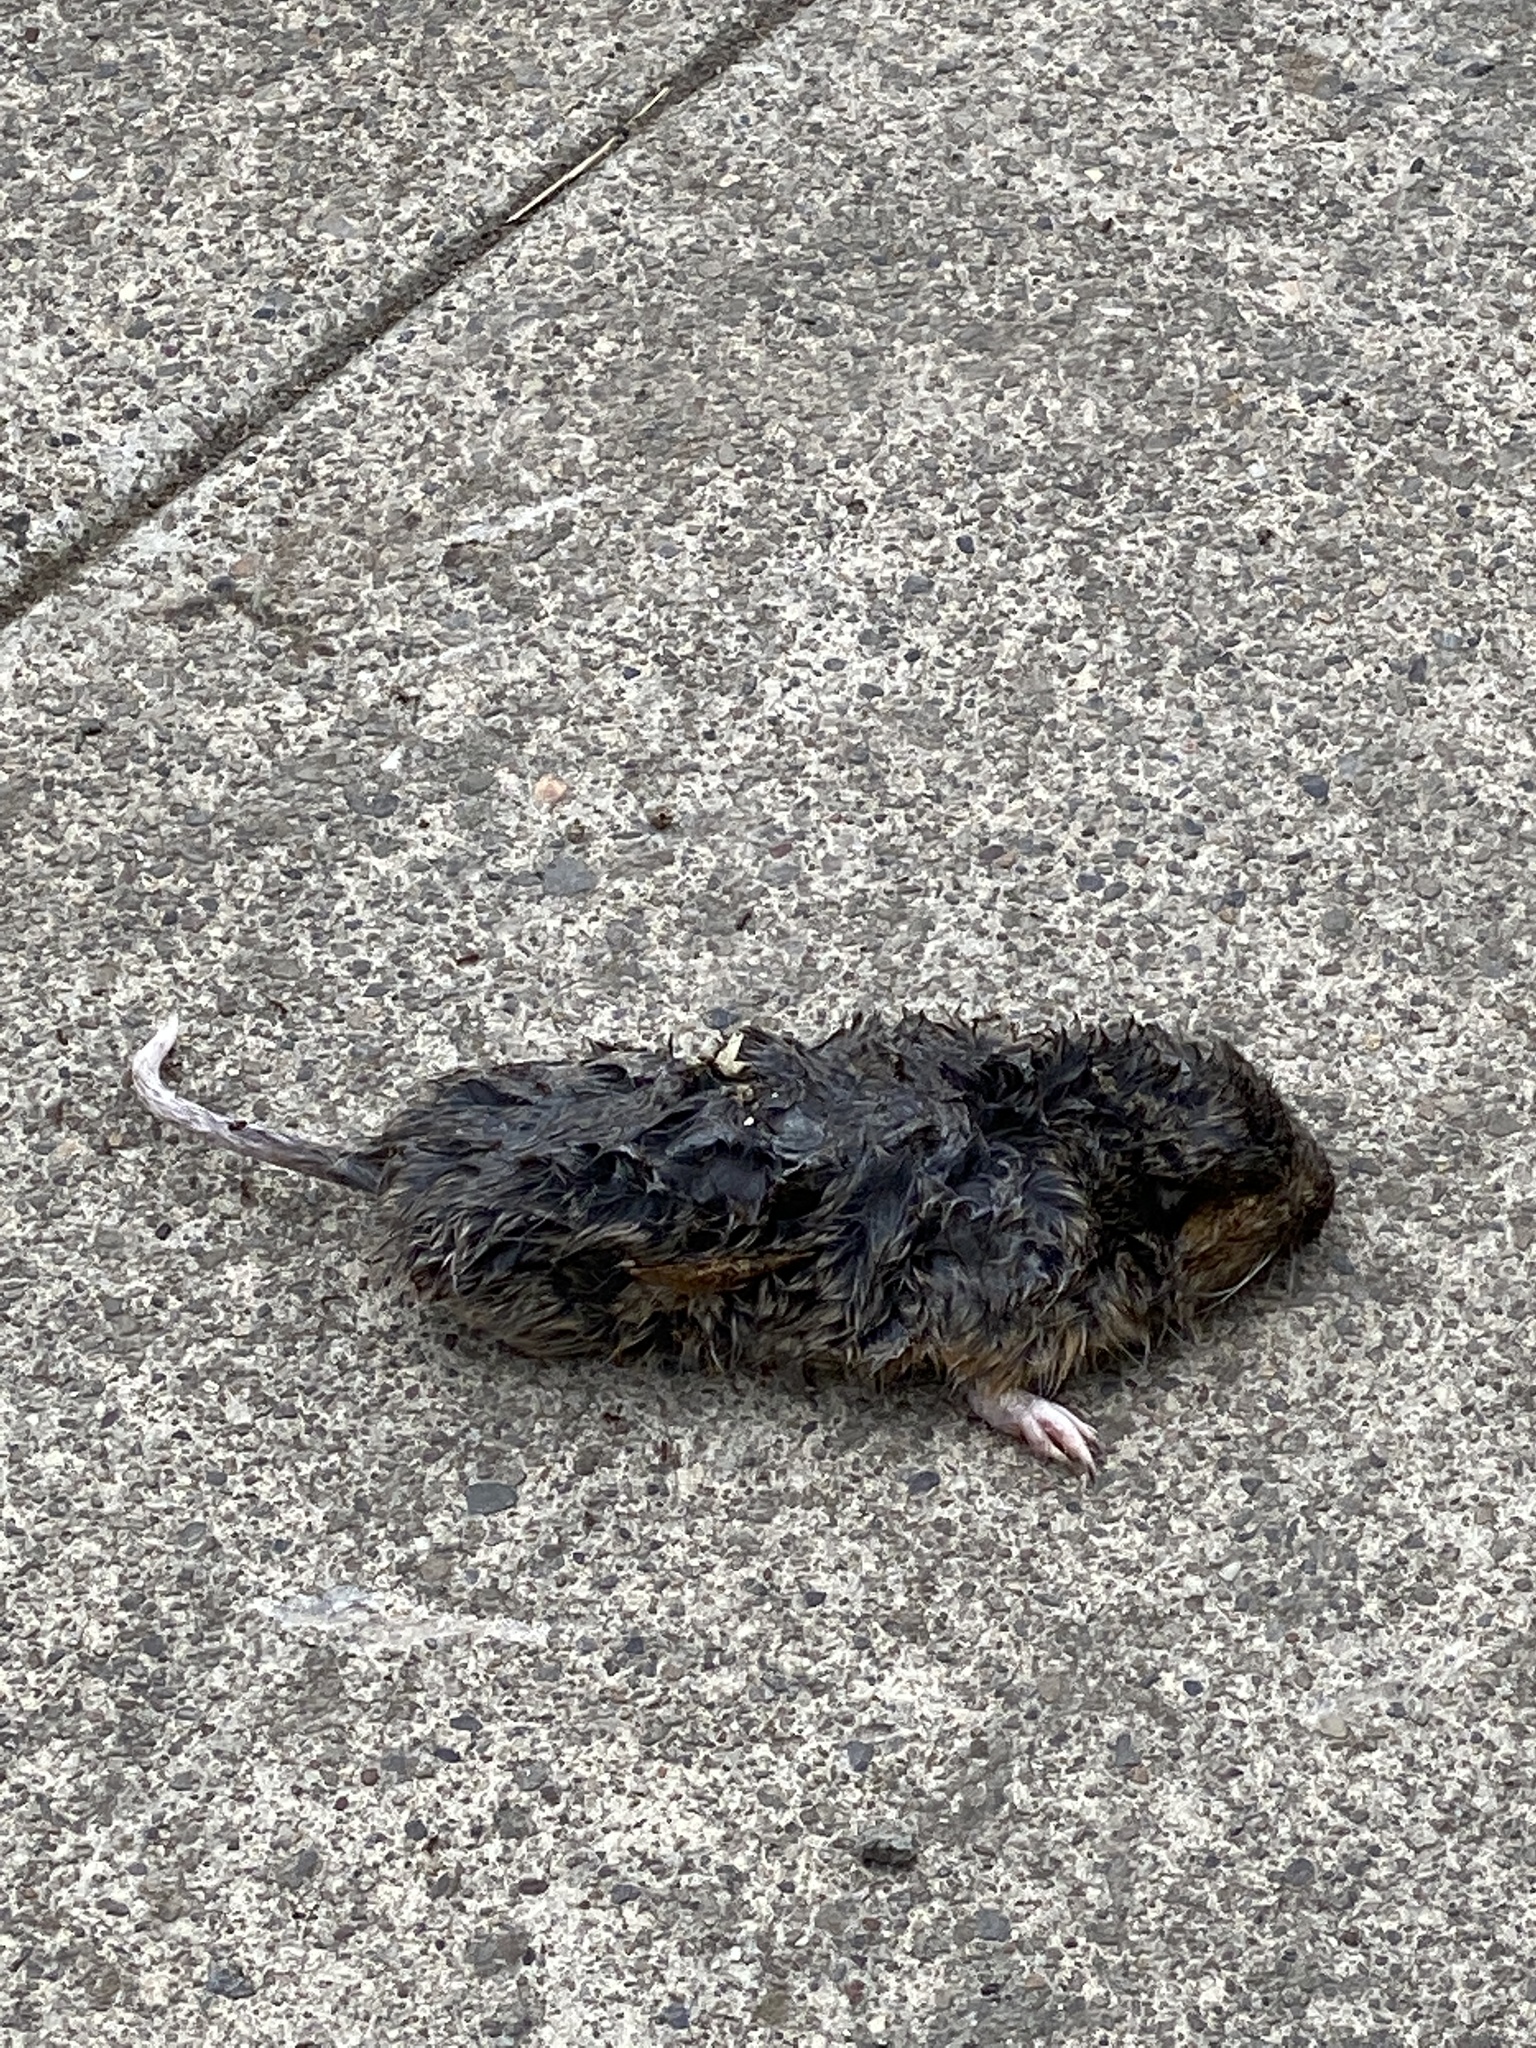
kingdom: Animalia
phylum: Chordata
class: Mammalia
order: Rodentia
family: Geomyidae
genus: Thomomys
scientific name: Thomomys bottae
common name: Botta's pocket gopher
